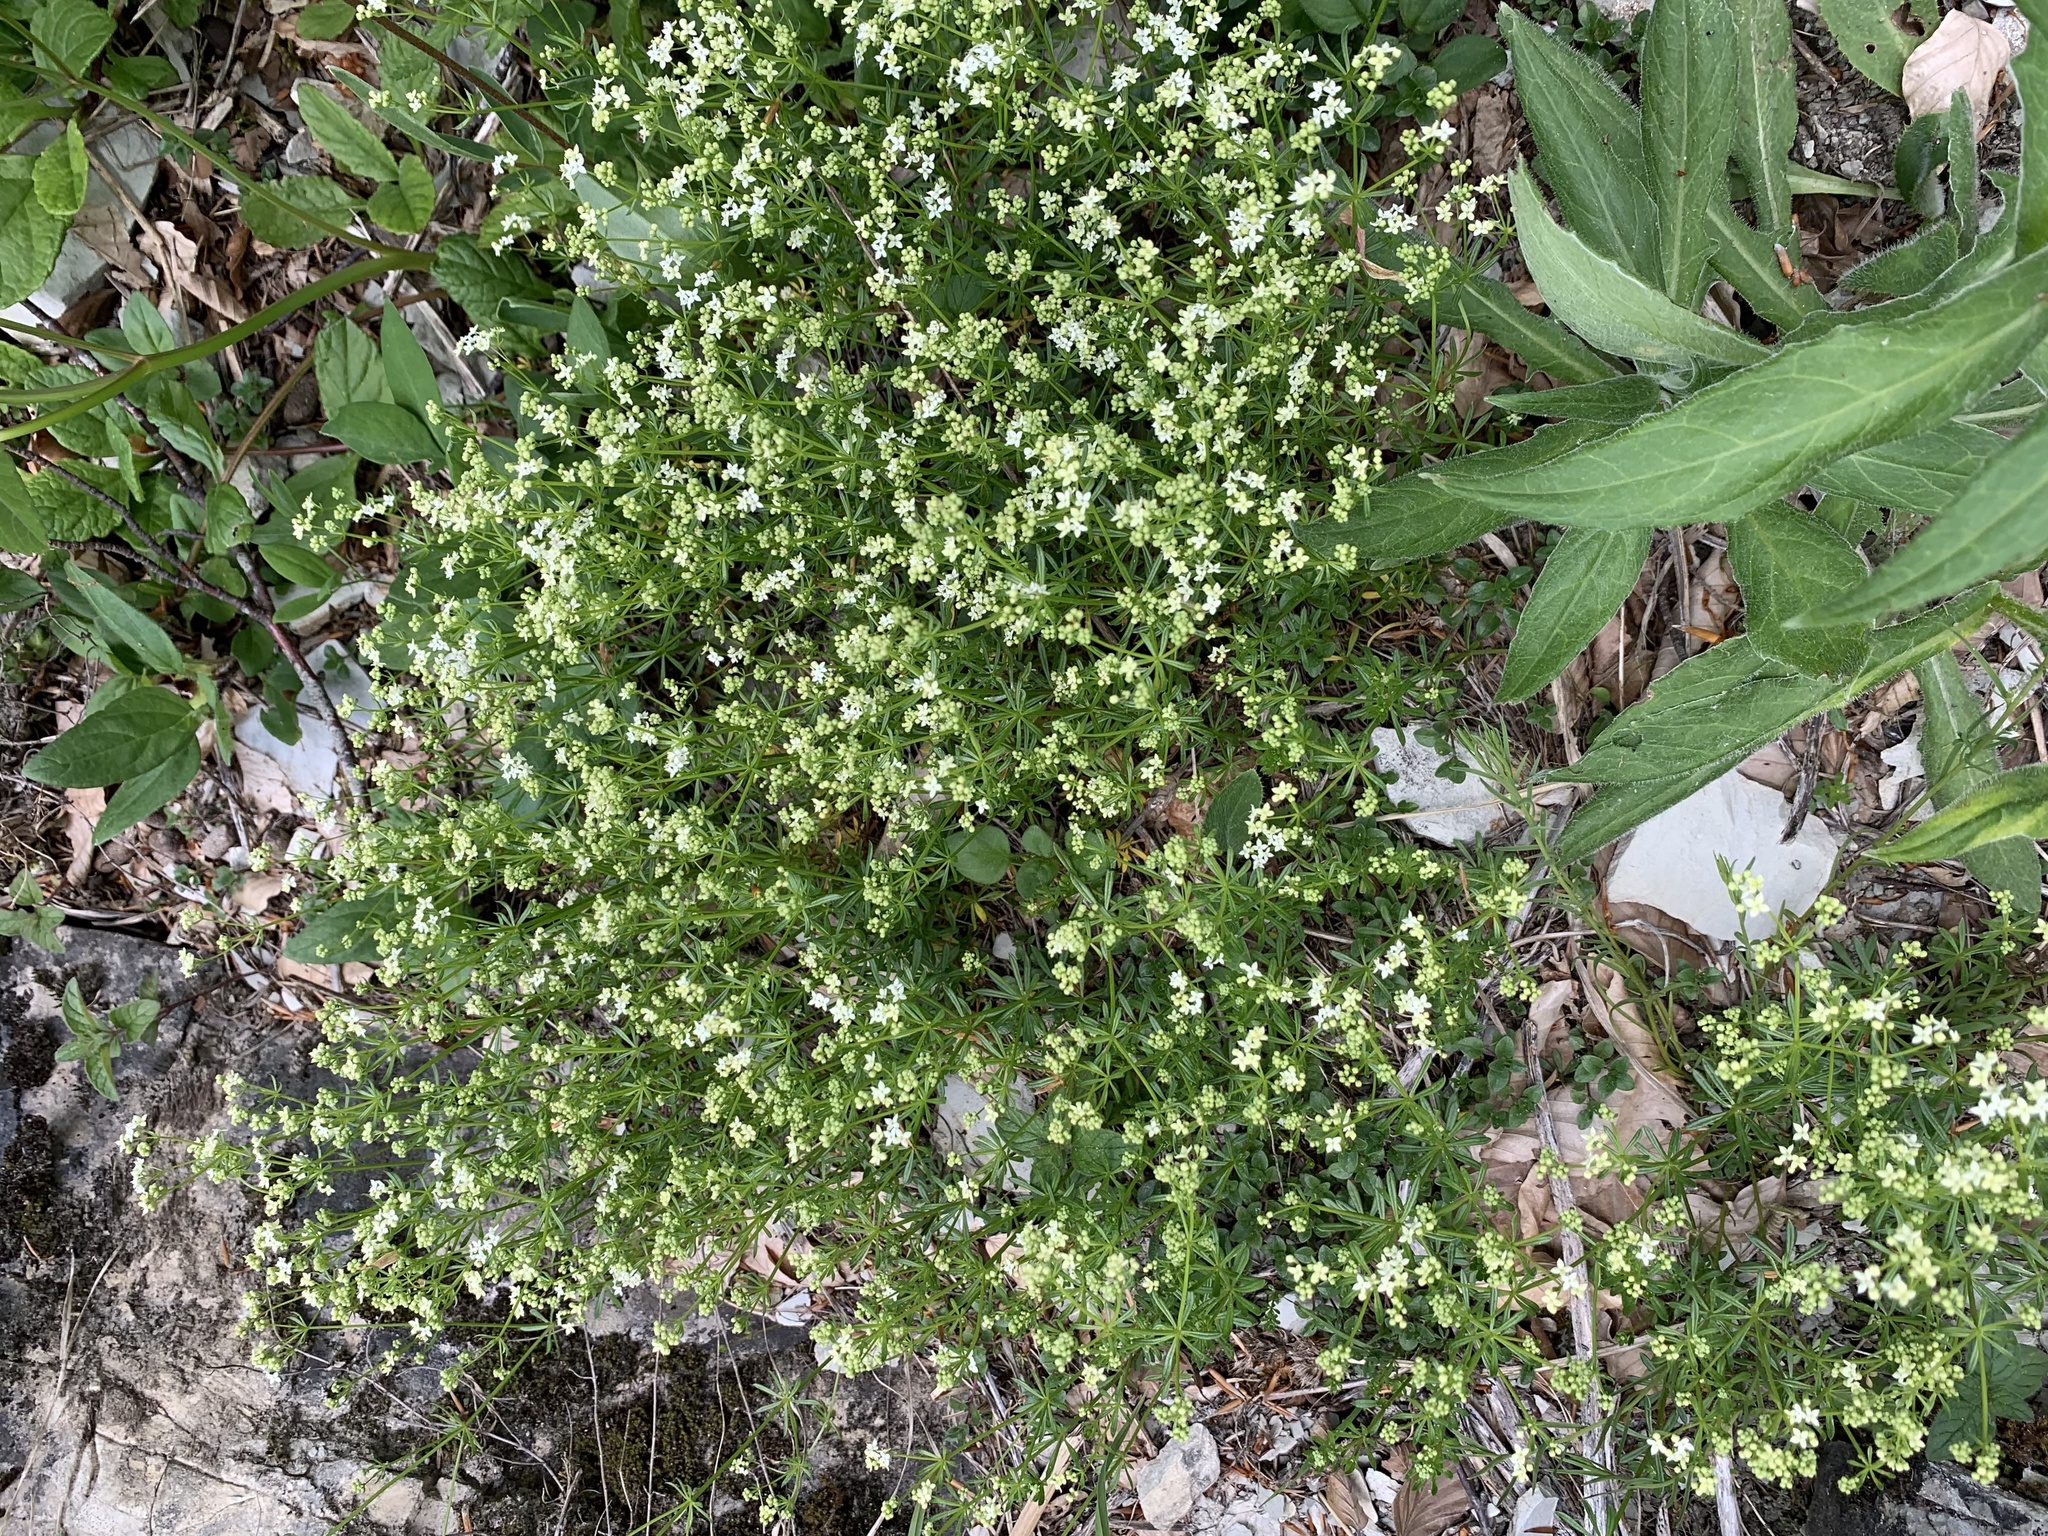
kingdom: Plantae
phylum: Tracheophyta
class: Magnoliopsida
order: Gentianales
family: Rubiaceae
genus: Galium
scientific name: Galium anisophyllon
